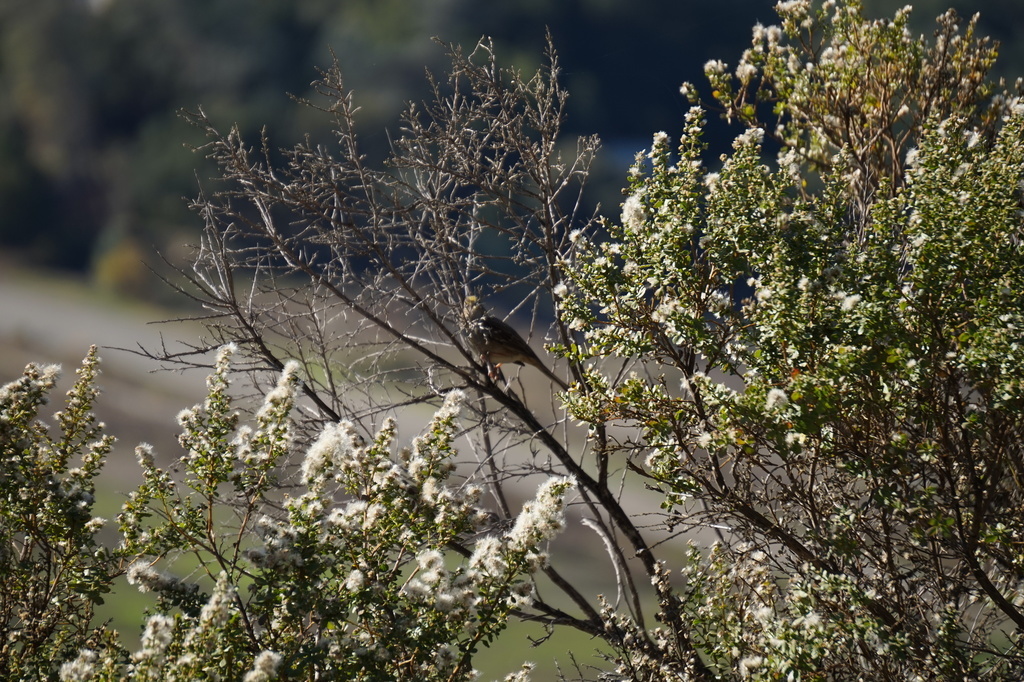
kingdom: Animalia
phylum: Chordata
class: Aves
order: Passeriformes
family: Passerellidae
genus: Zonotrichia
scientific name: Zonotrichia atricapilla
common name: Golden-crowned sparrow
